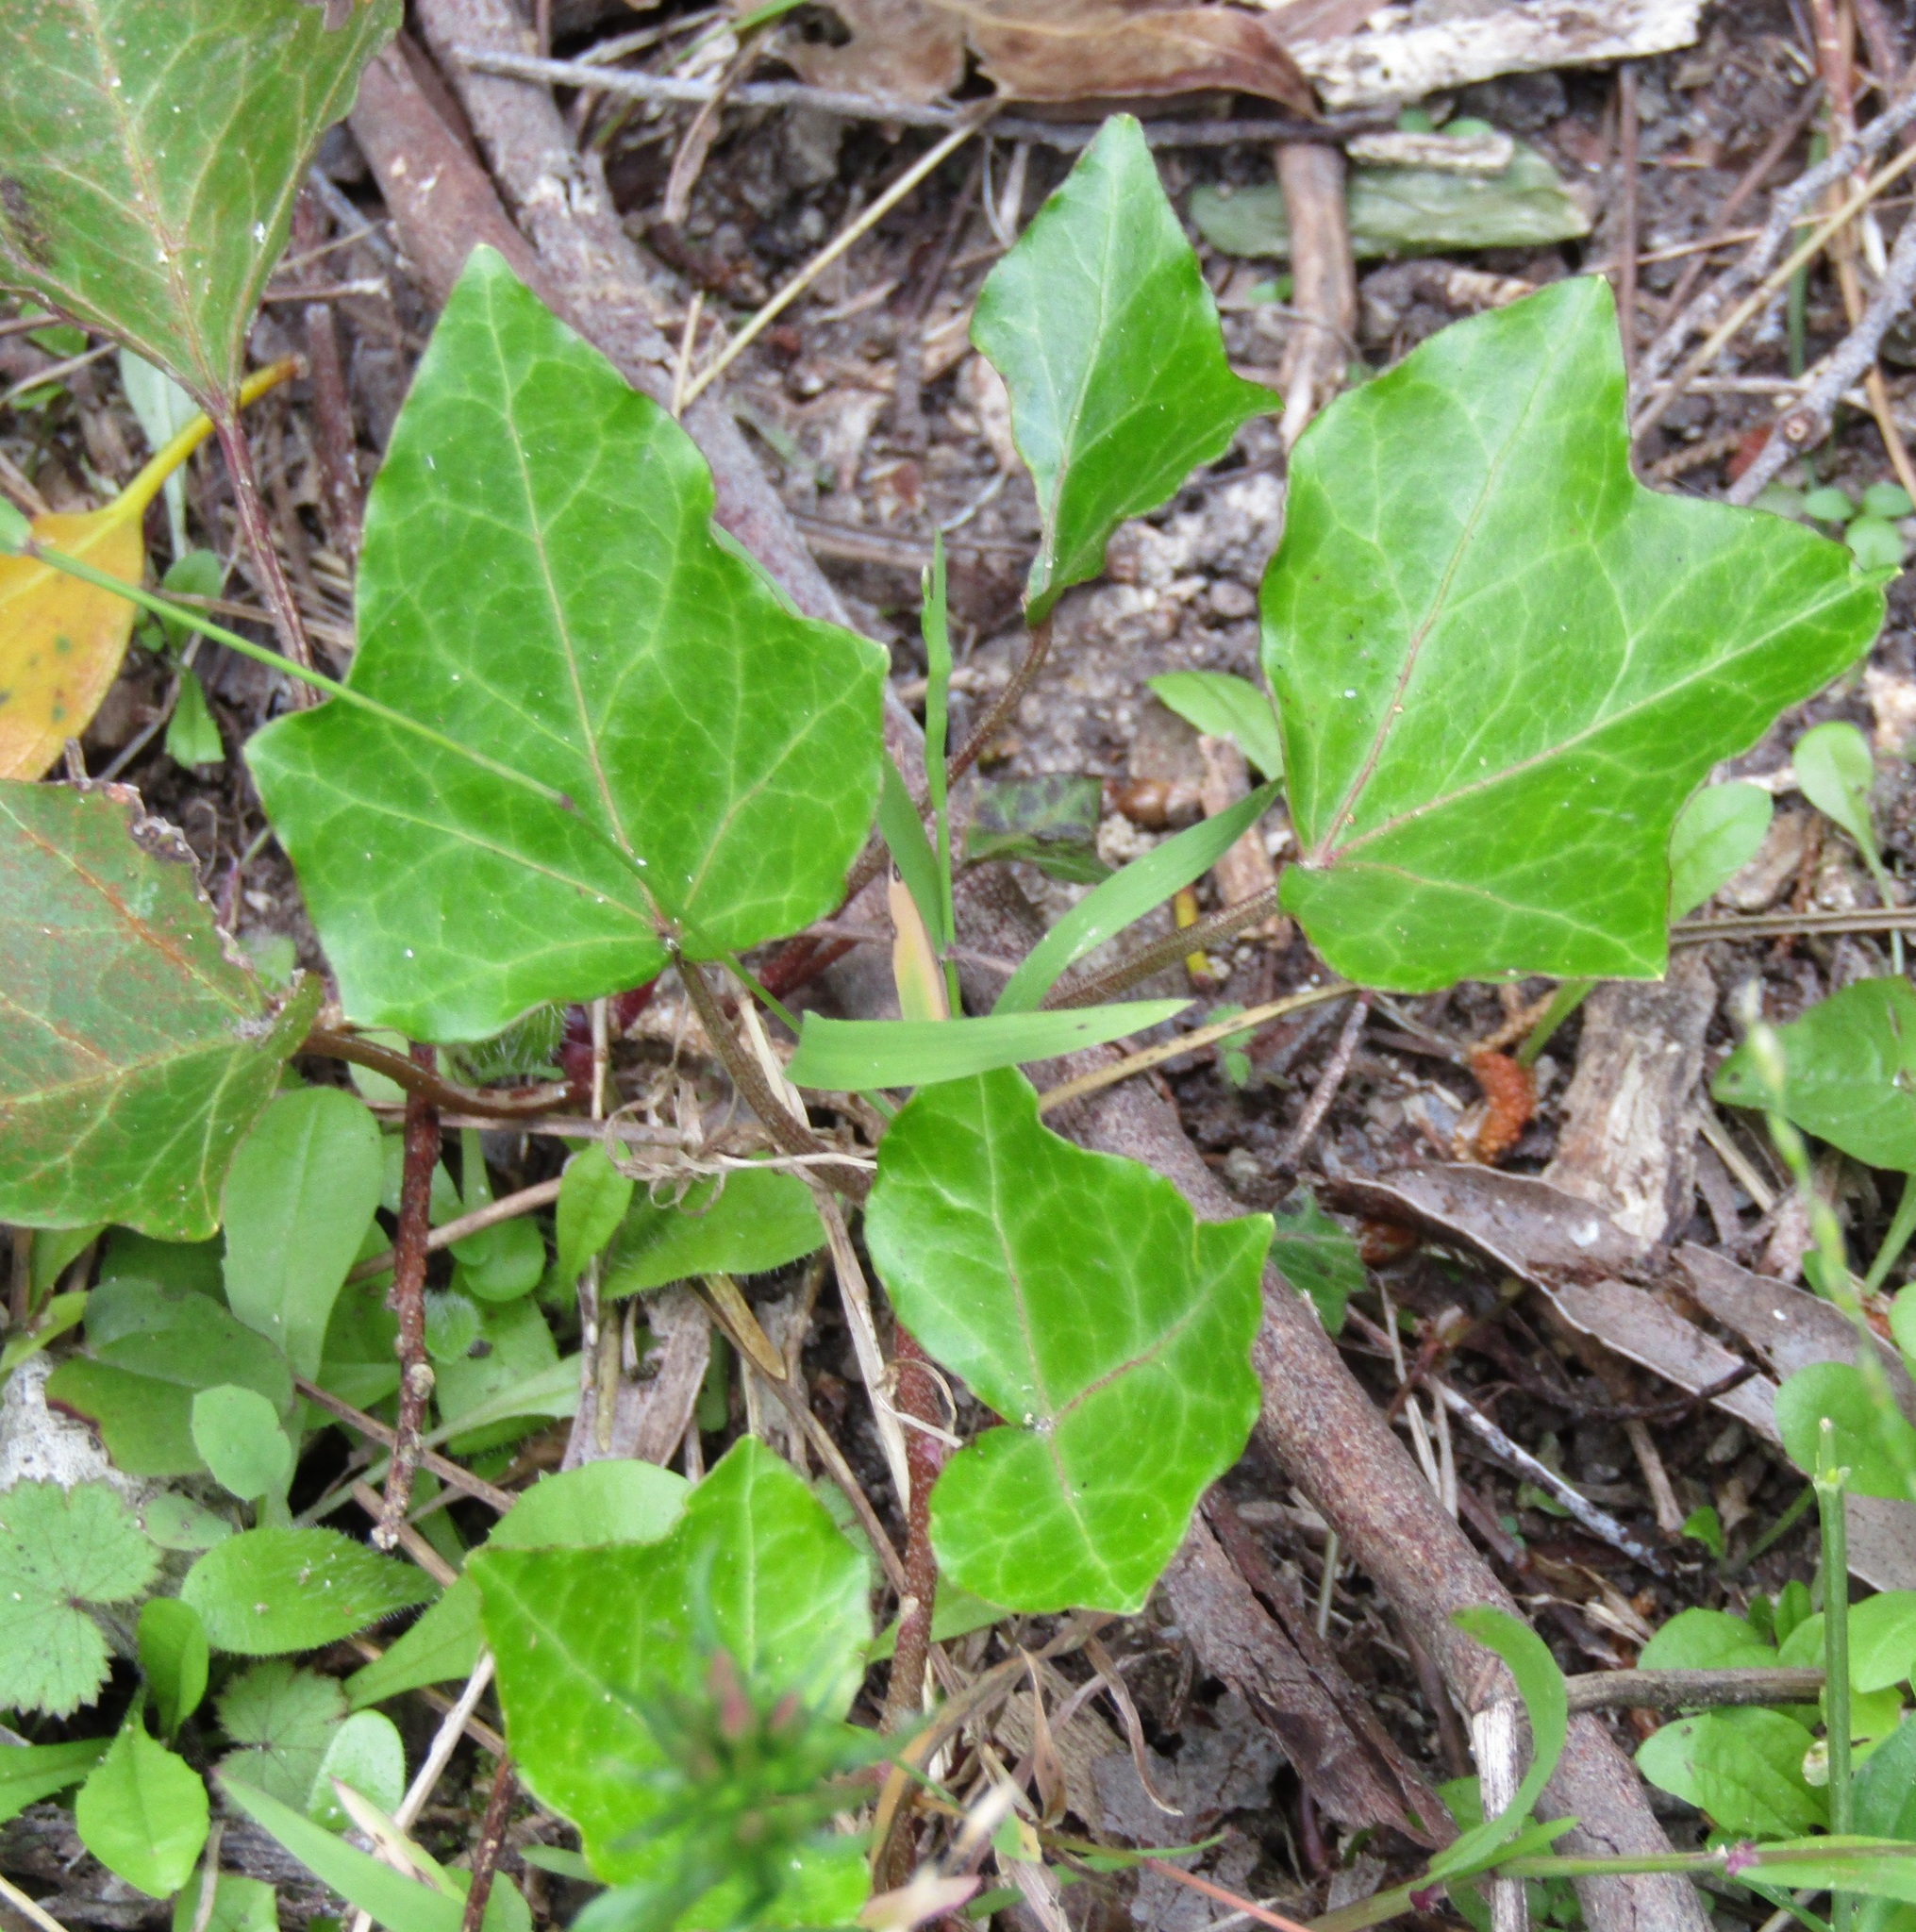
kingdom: Plantae
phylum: Tracheophyta
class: Magnoliopsida
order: Apiales
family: Araliaceae
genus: Hedera
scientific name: Hedera helix
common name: Ivy
